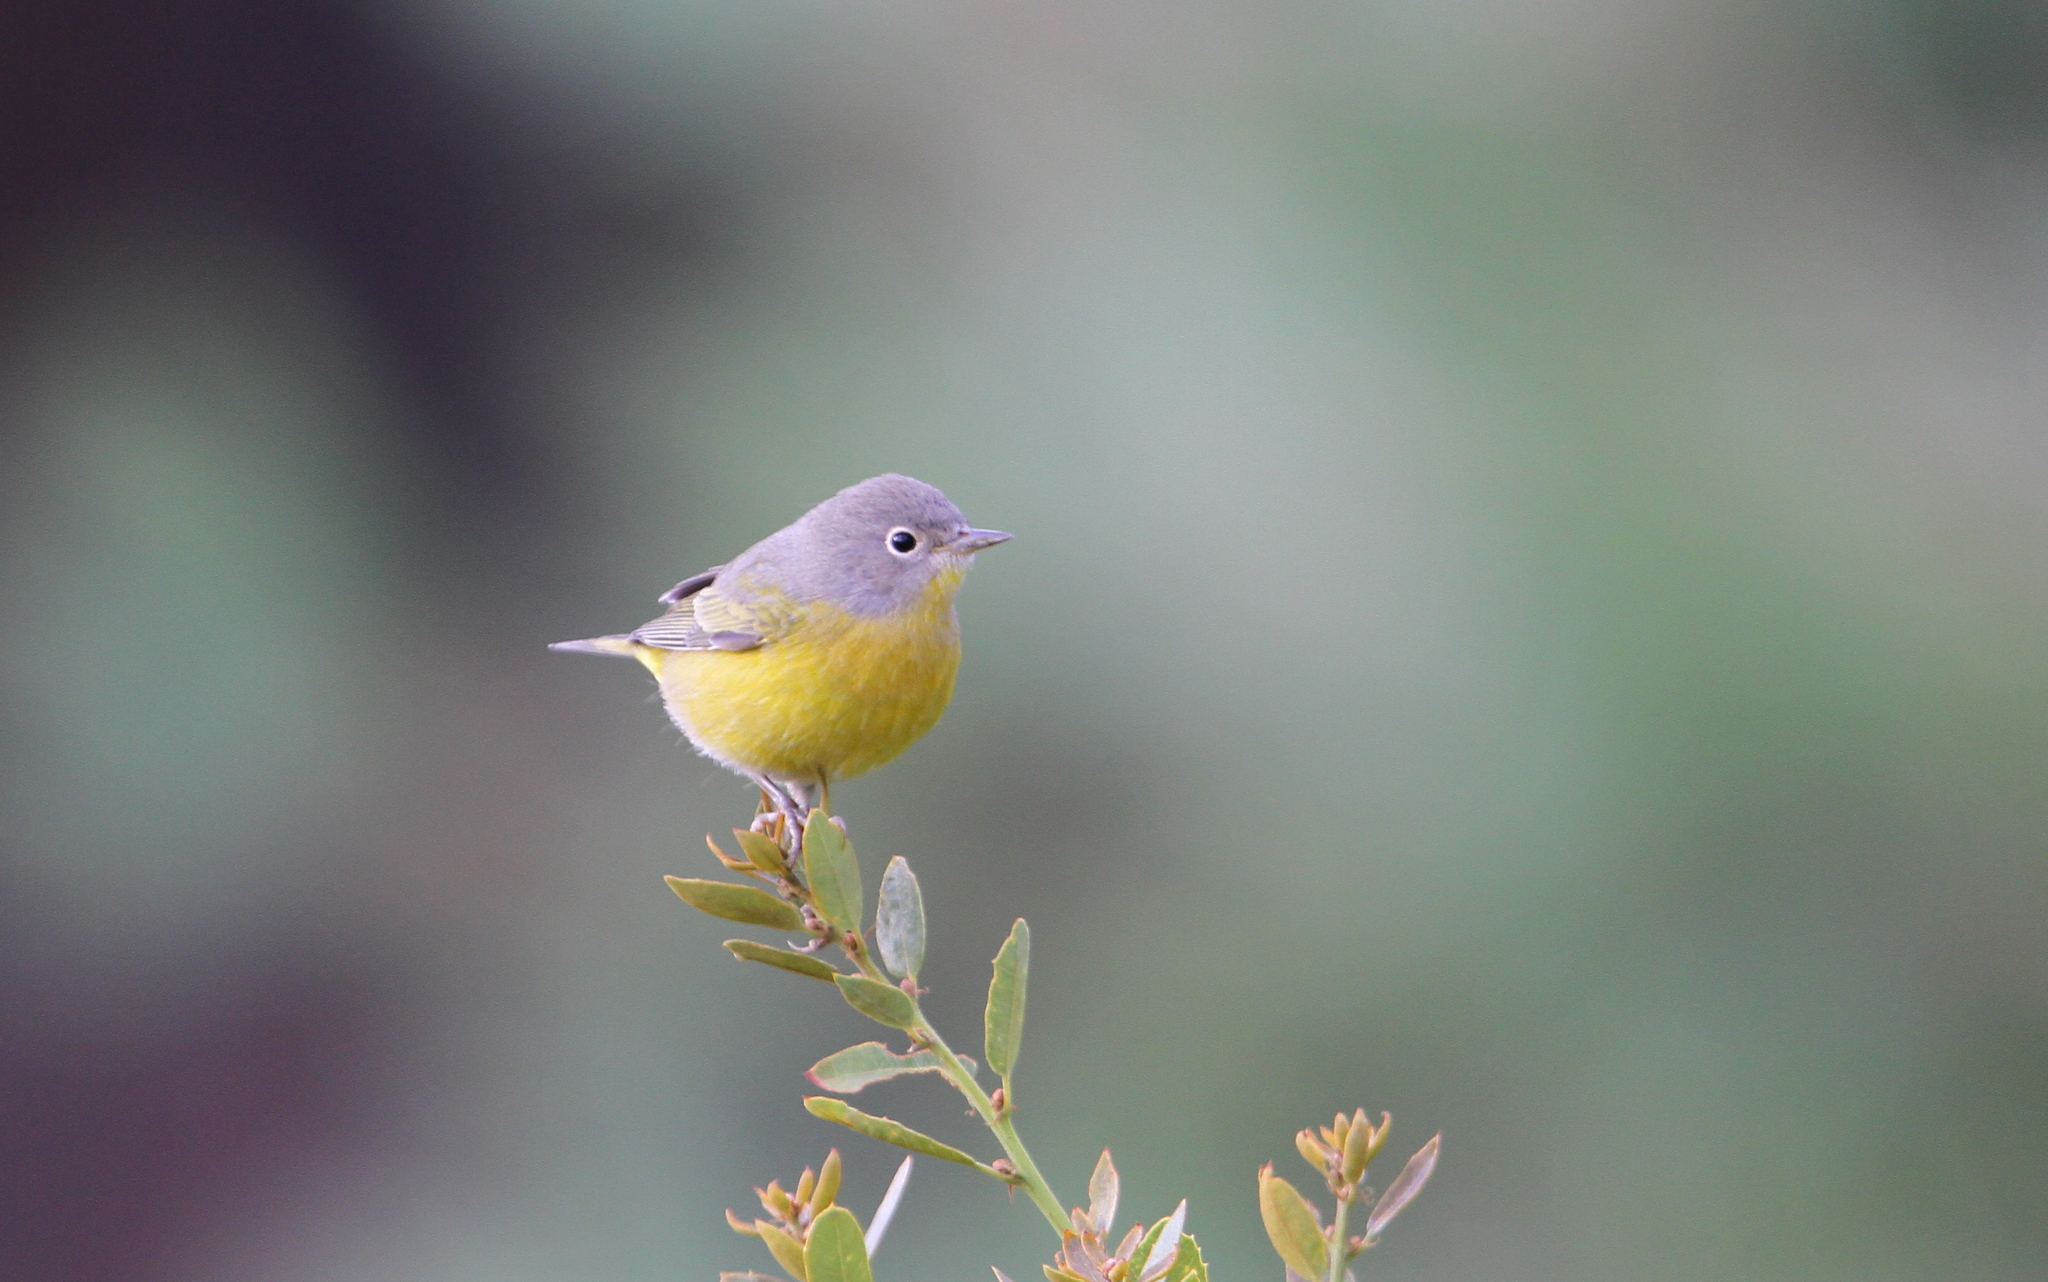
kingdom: Animalia
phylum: Chordata
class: Aves
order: Passeriformes
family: Parulidae
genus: Leiothlypis
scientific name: Leiothlypis ruficapilla
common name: Nashville warbler
